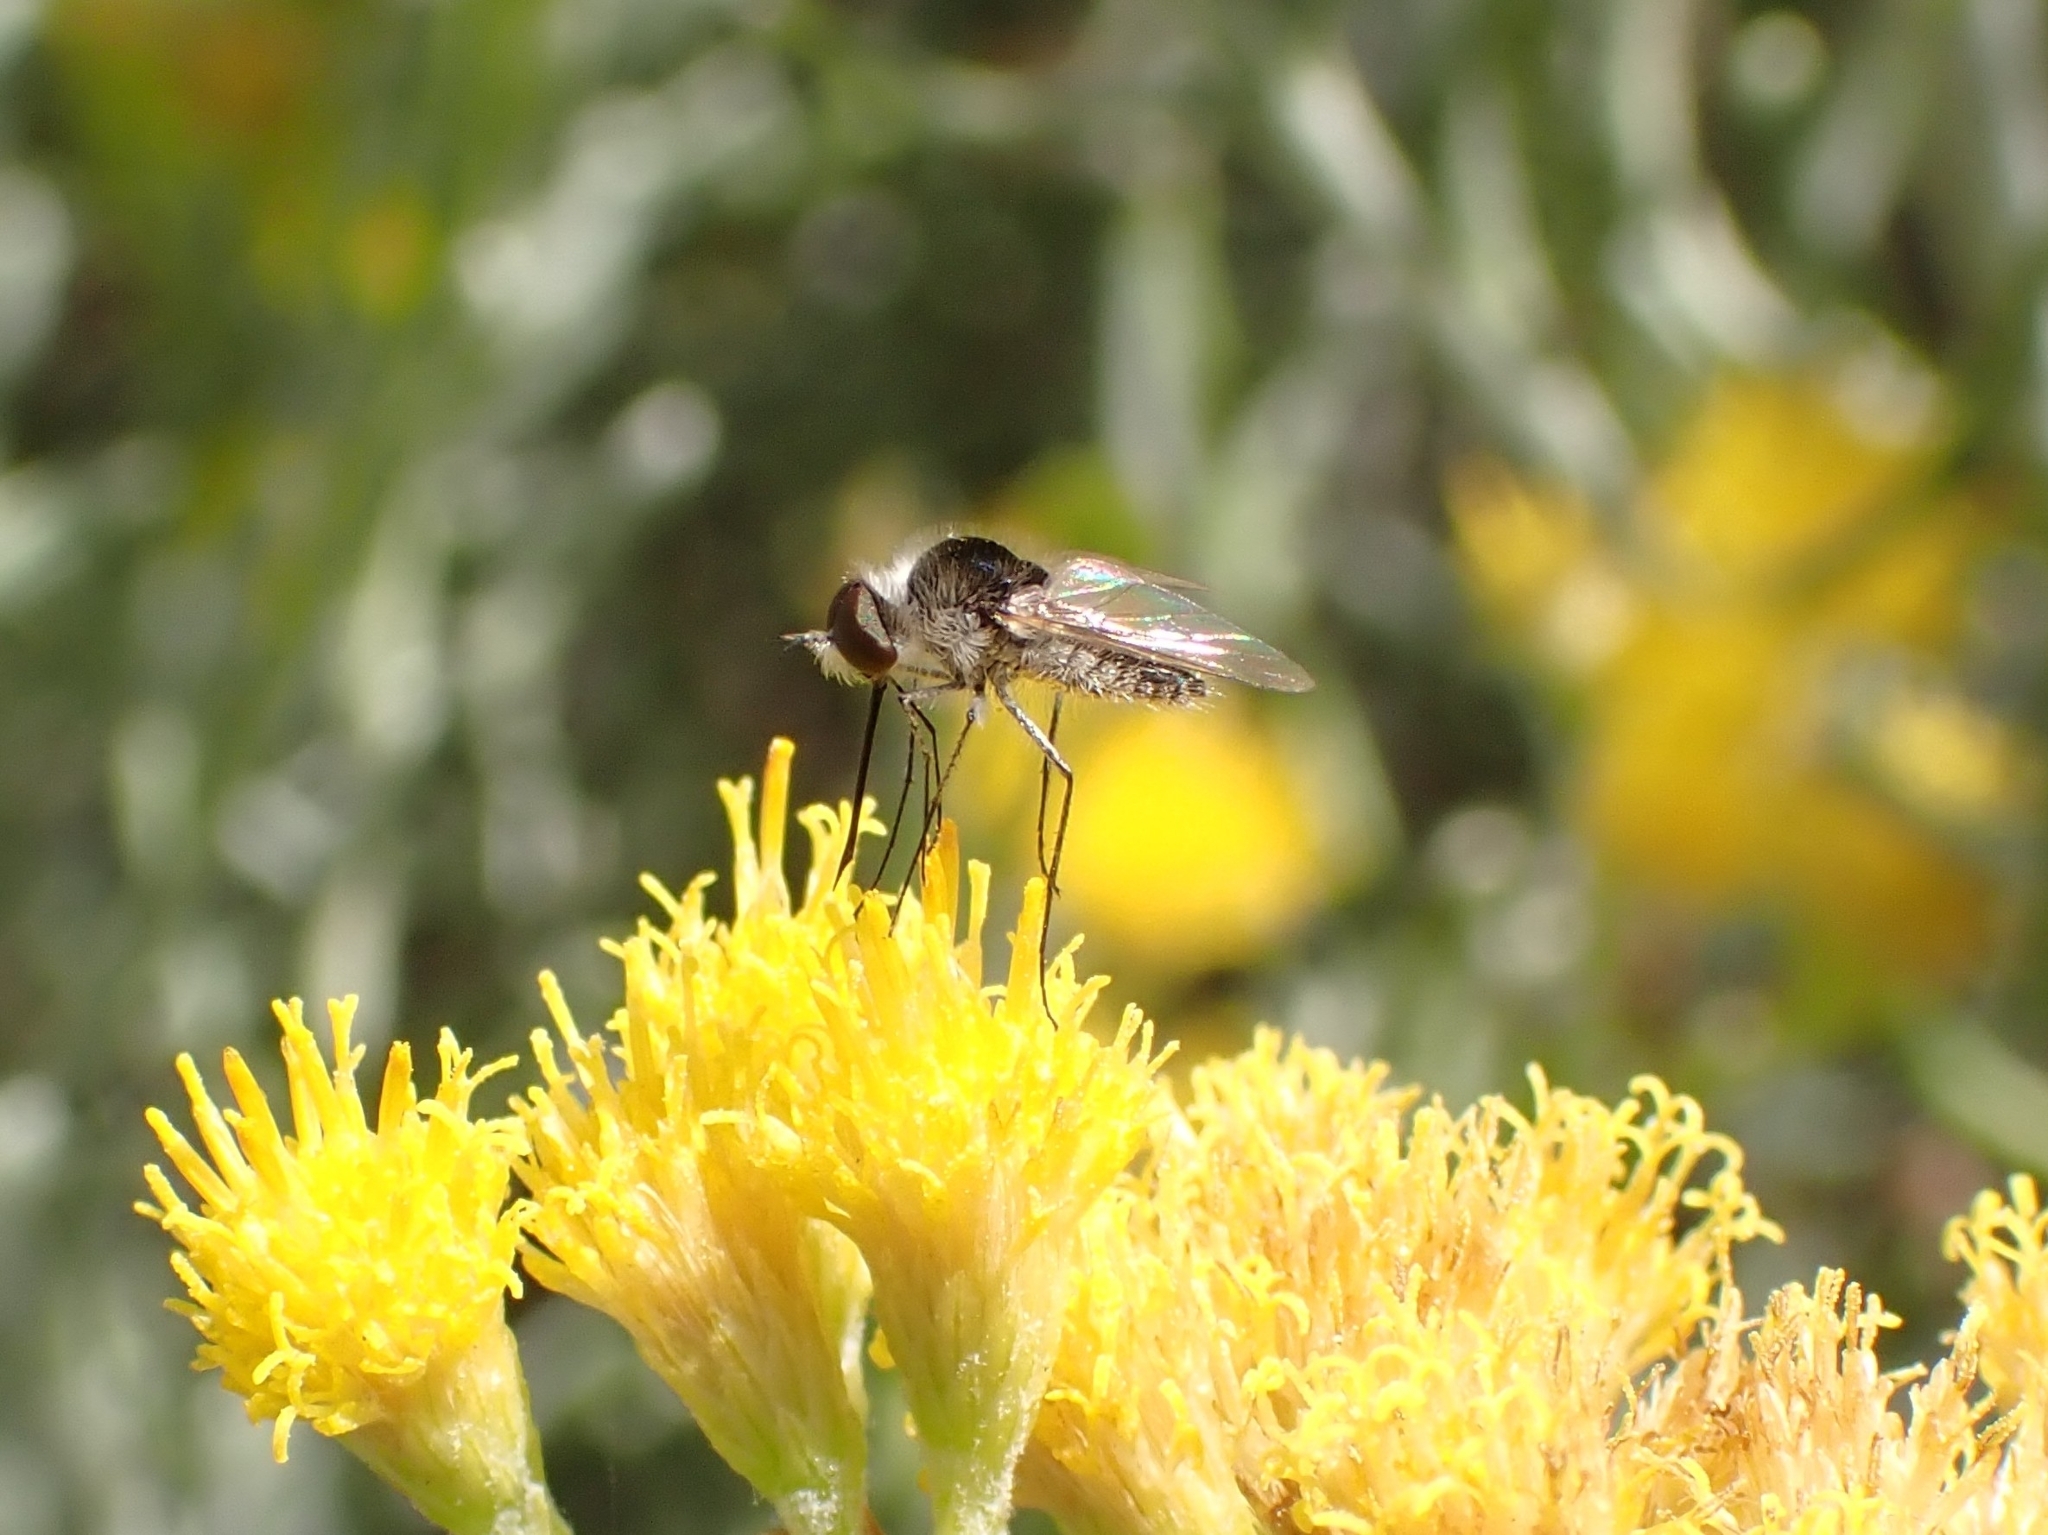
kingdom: Animalia
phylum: Arthropoda
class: Insecta
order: Diptera
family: Bombyliidae
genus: Geron
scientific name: Geron hesperidum
